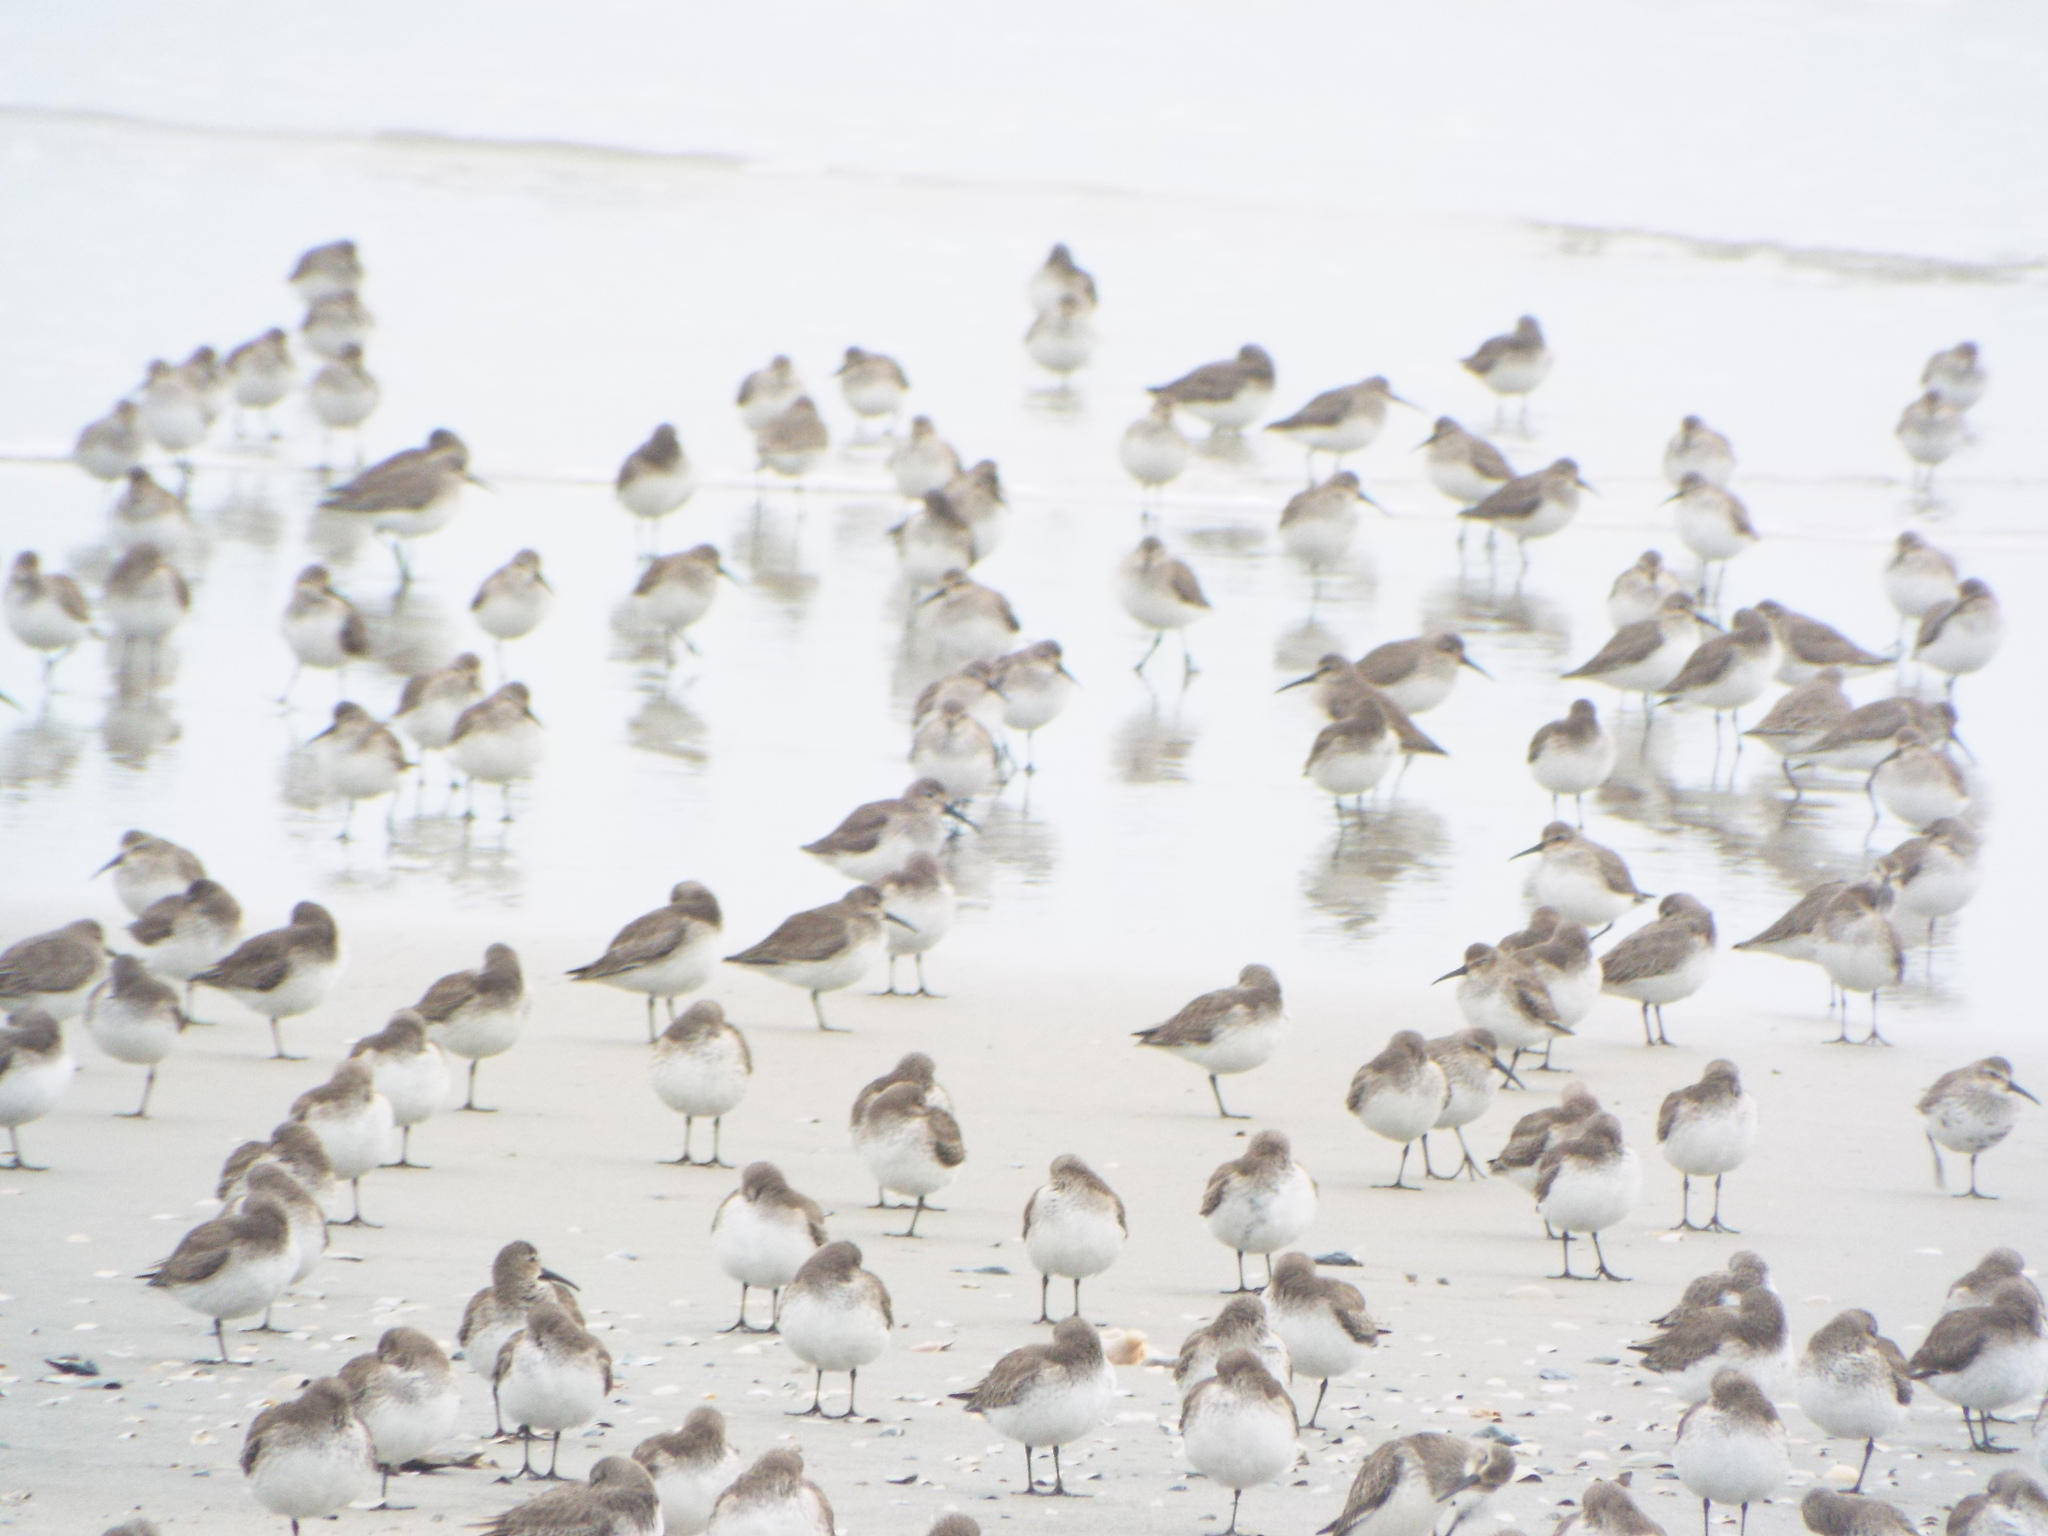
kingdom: Animalia
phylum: Chordata
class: Aves
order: Charadriiformes
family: Scolopacidae
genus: Calidris
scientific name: Calidris alpina
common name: Dunlin
